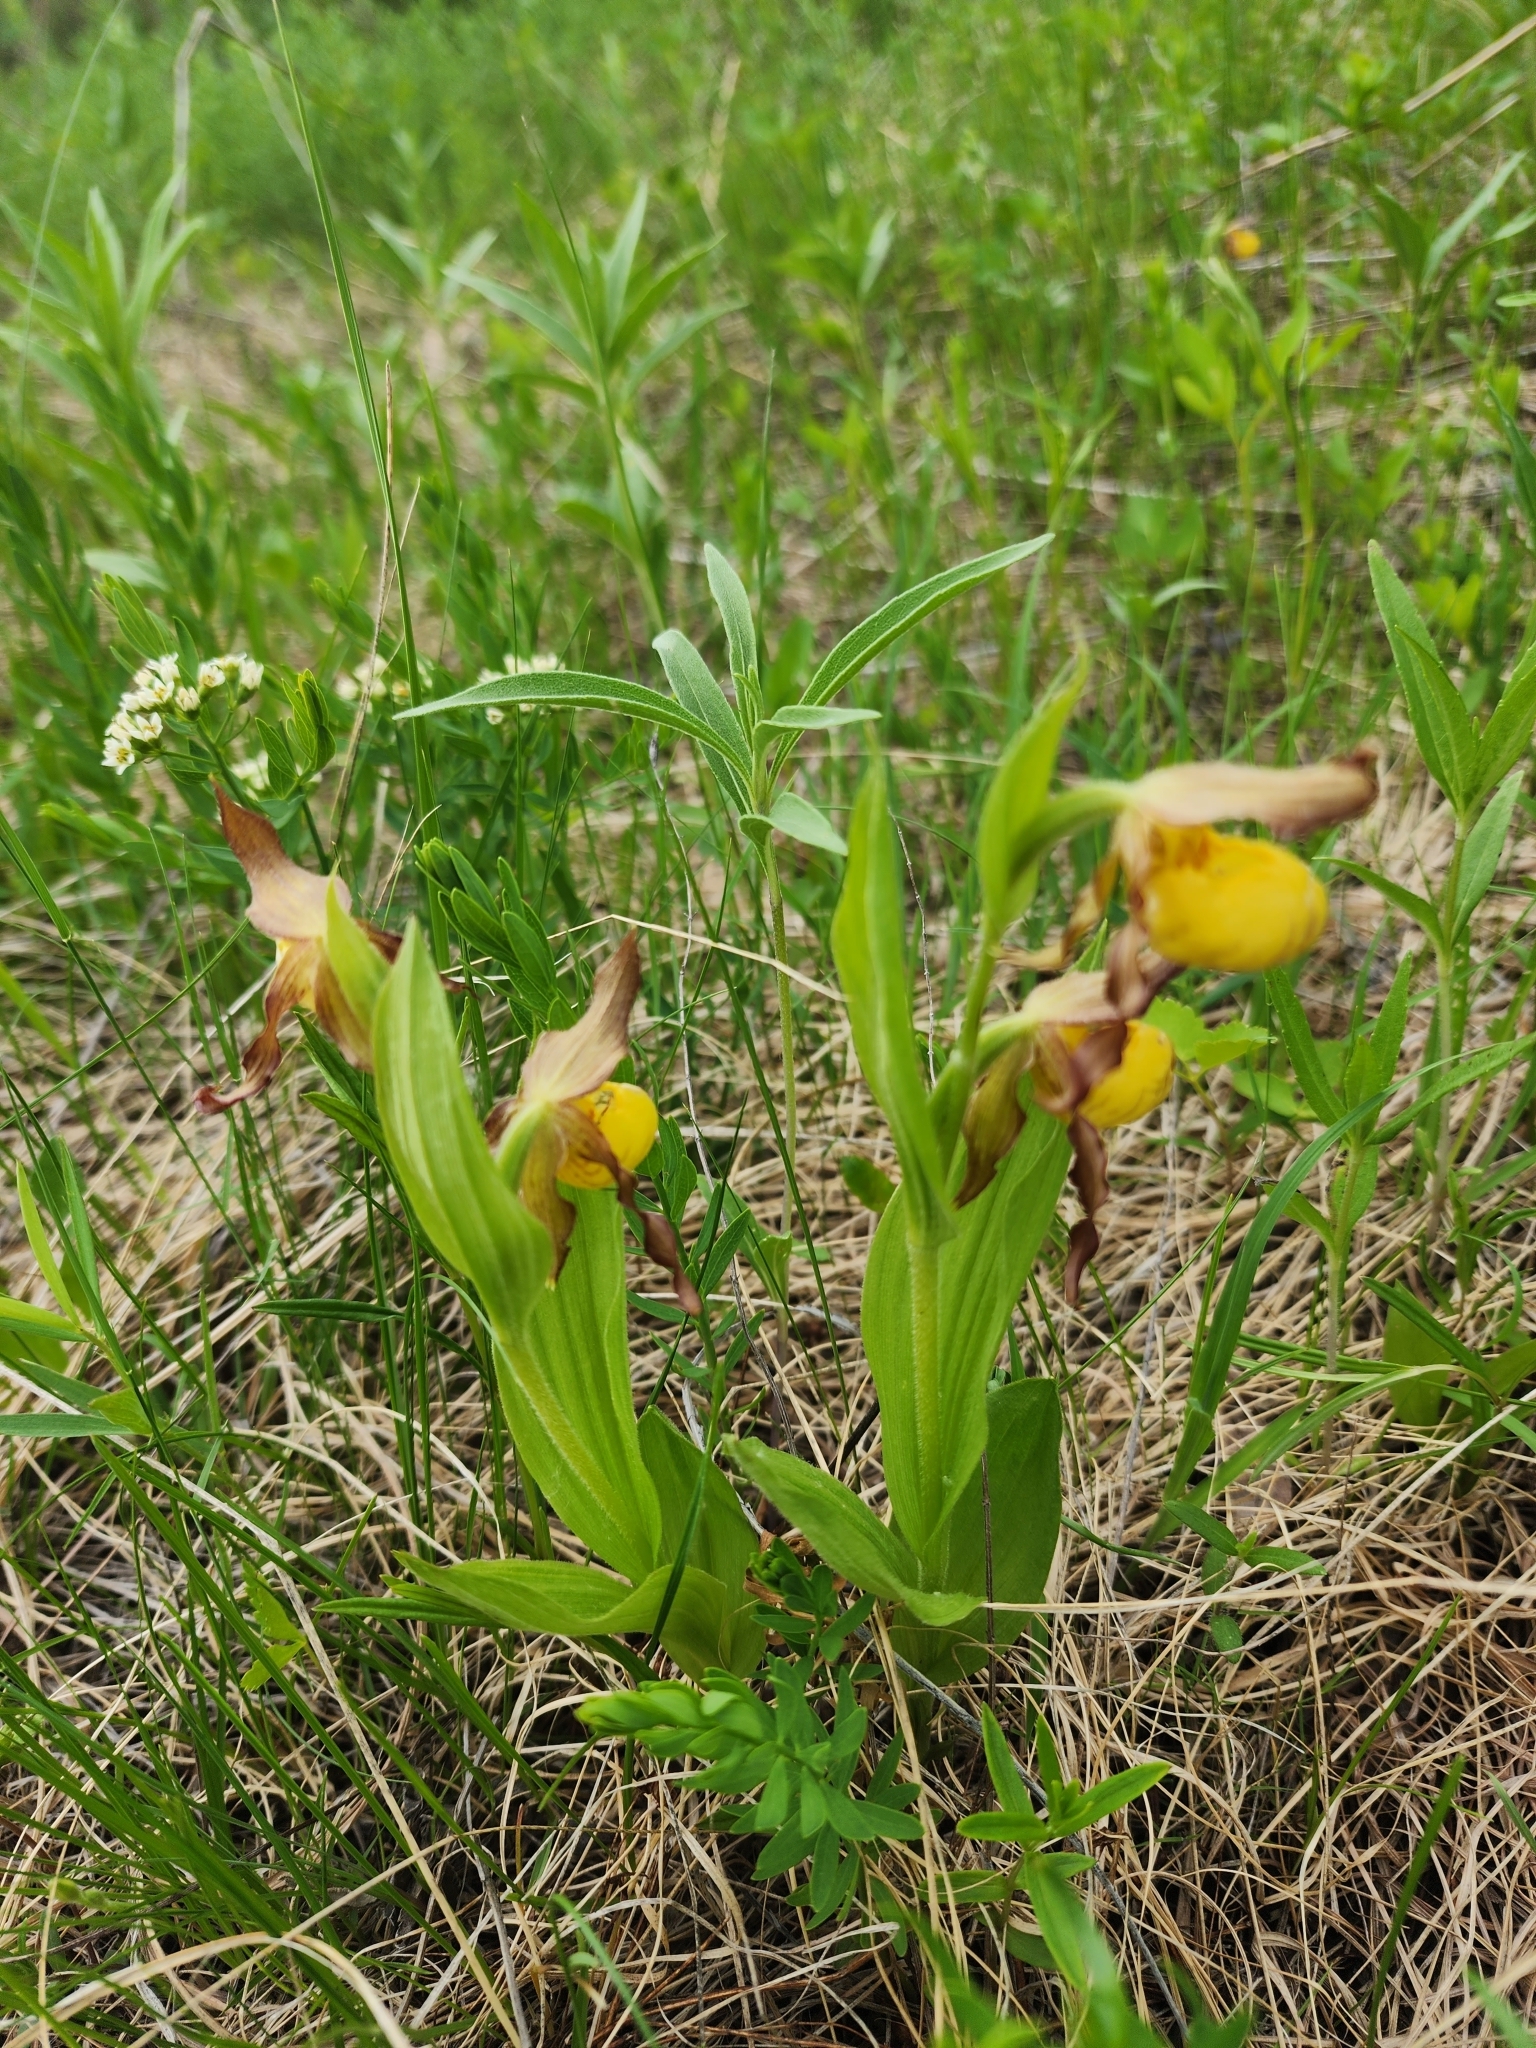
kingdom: Plantae
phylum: Tracheophyta
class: Liliopsida
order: Asparagales
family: Orchidaceae
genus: Cypripedium
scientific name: Cypripedium parviflorum
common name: American yellow lady's-slipper
